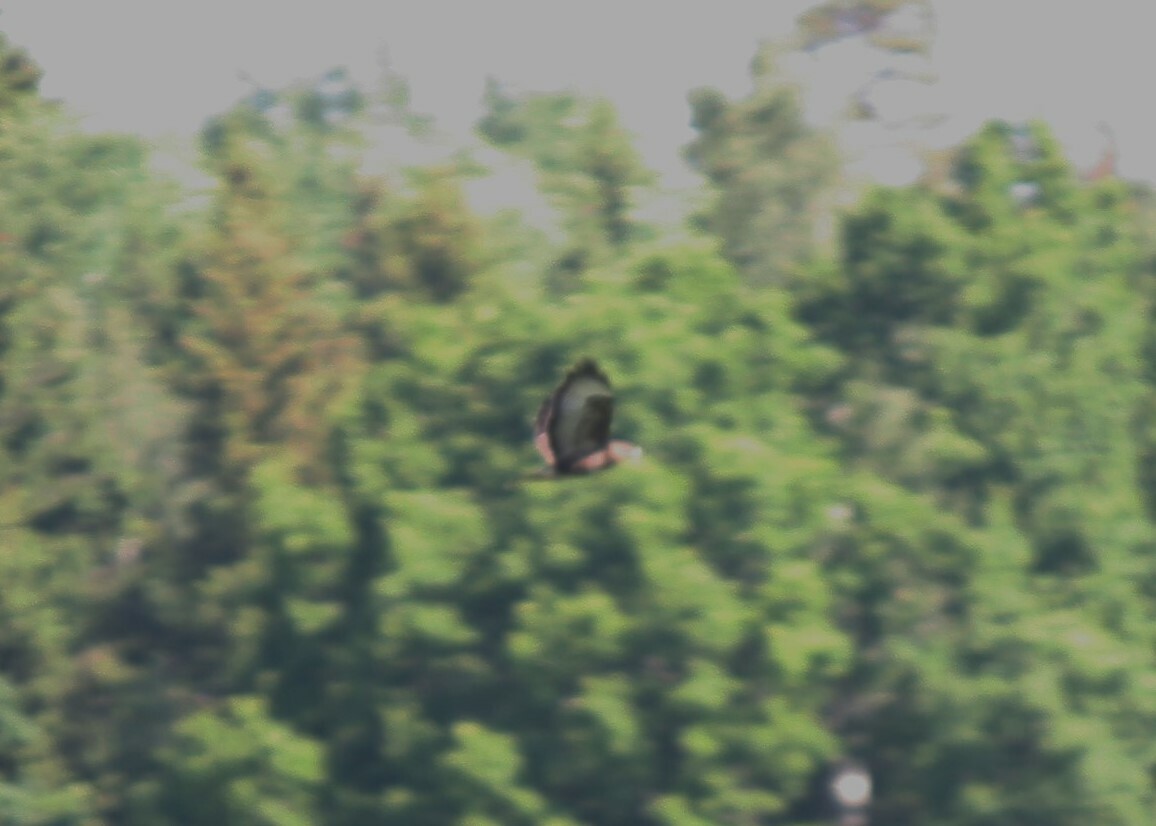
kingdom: Animalia
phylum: Chordata
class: Aves
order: Accipitriformes
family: Accipitridae
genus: Buteo
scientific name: Buteo buteo
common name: Common buzzard
